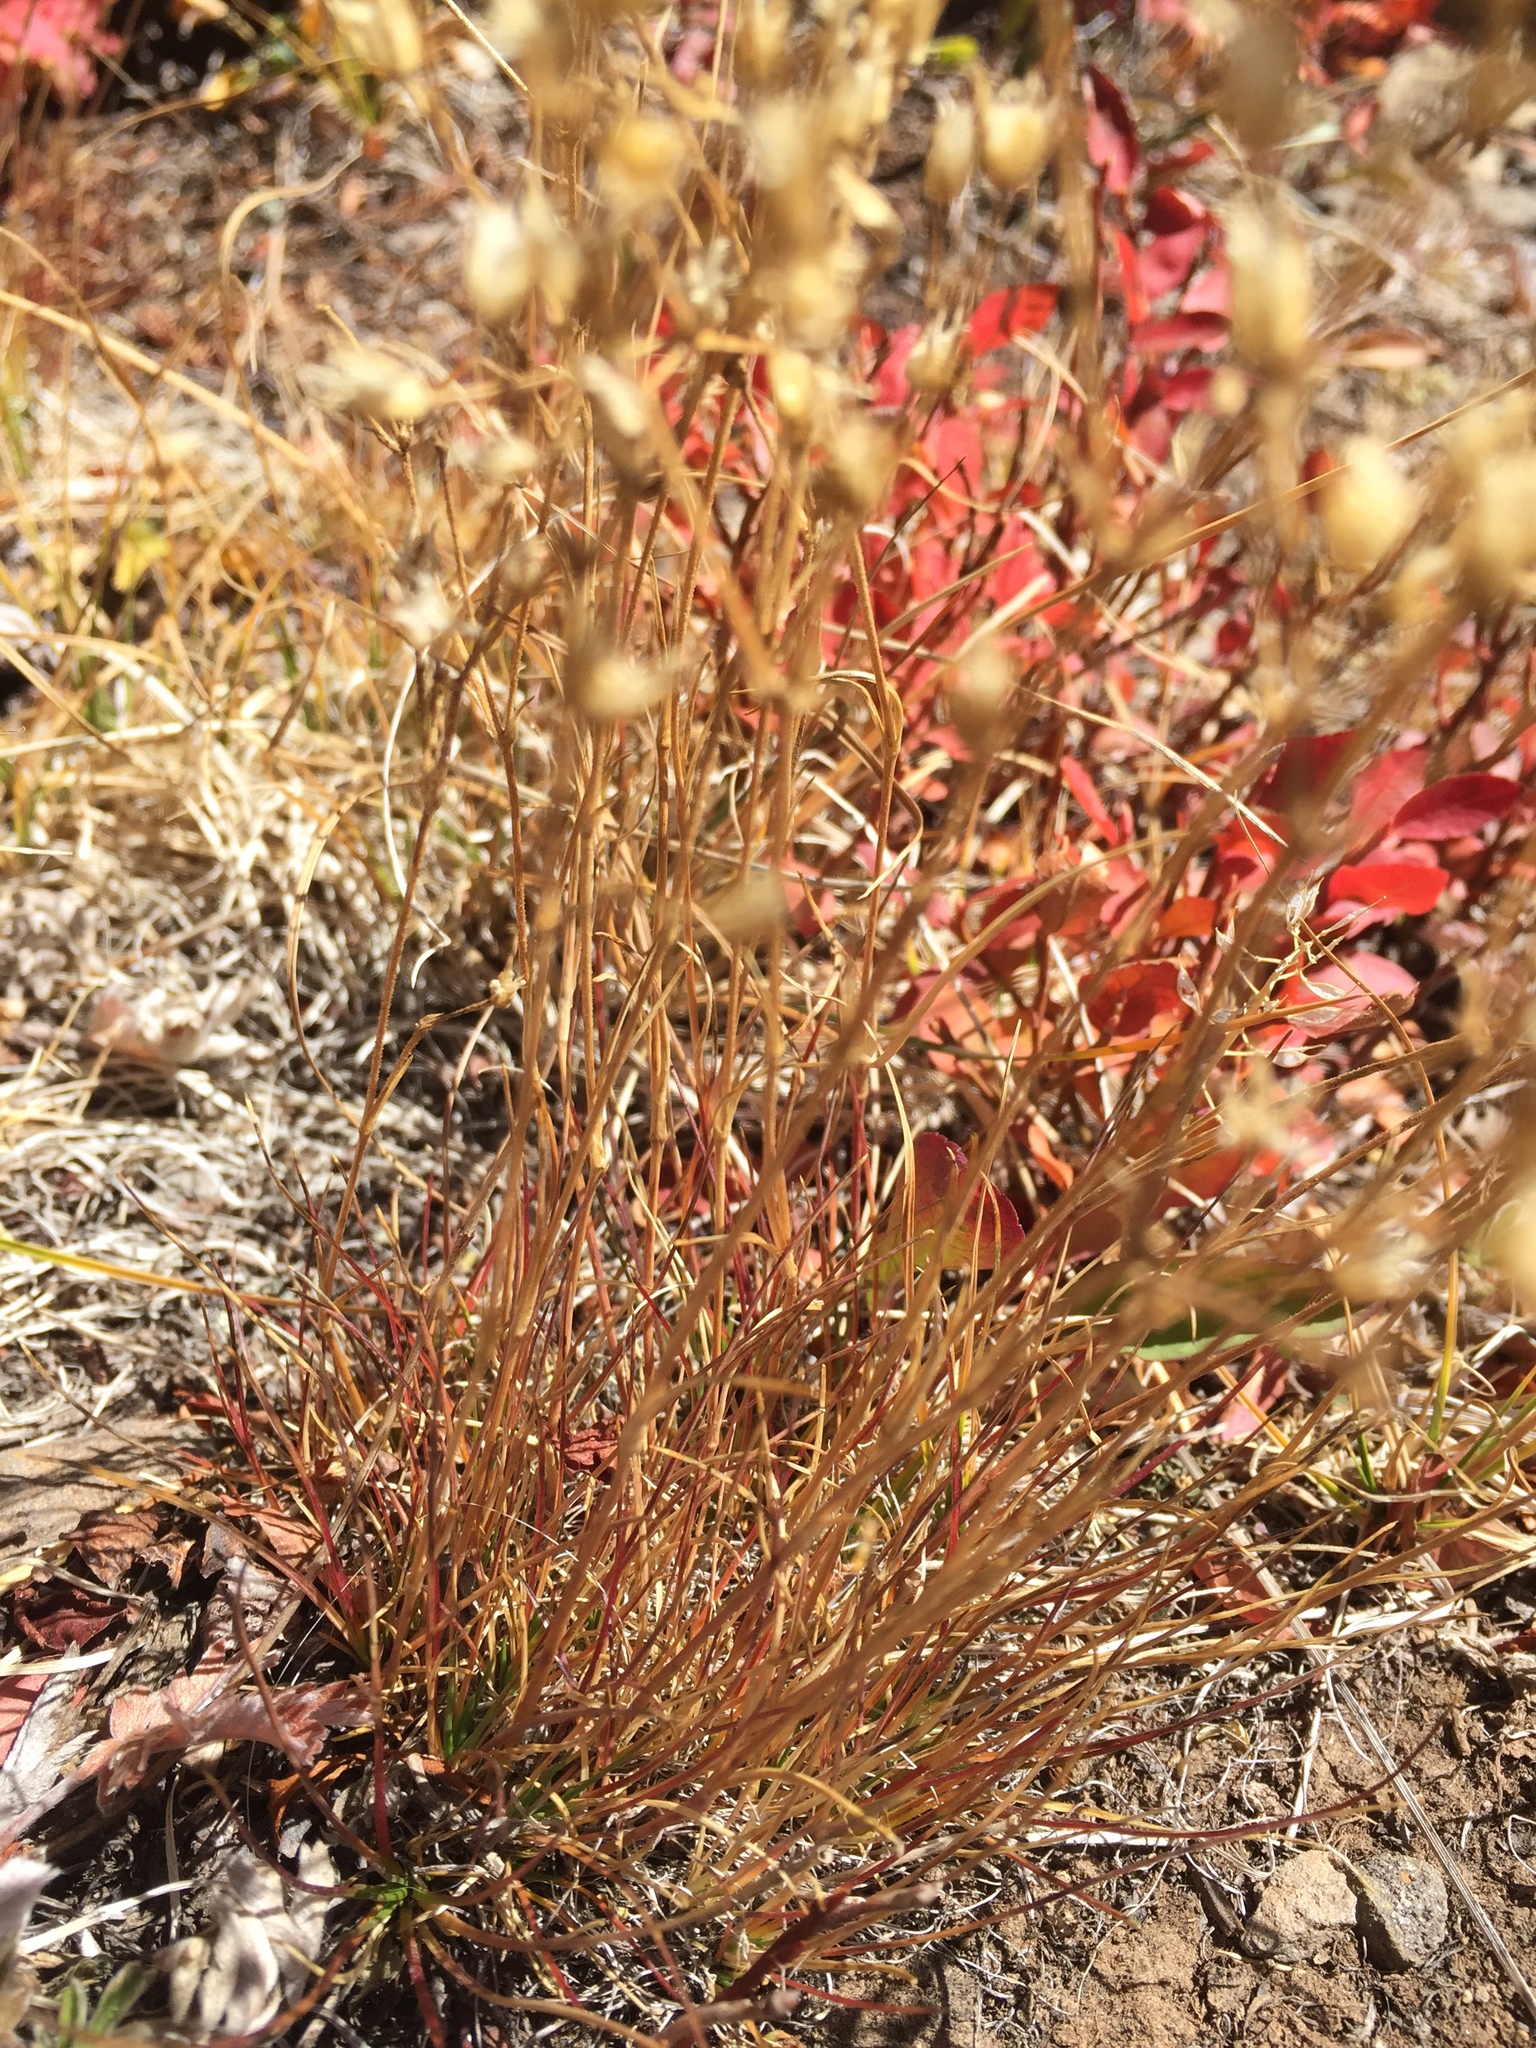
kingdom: Plantae
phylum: Tracheophyta
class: Magnoliopsida
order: Ericales
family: Primulaceae
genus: Androsace
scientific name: Androsace septentrionalis
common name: Hairy northern fairy-candelabra
